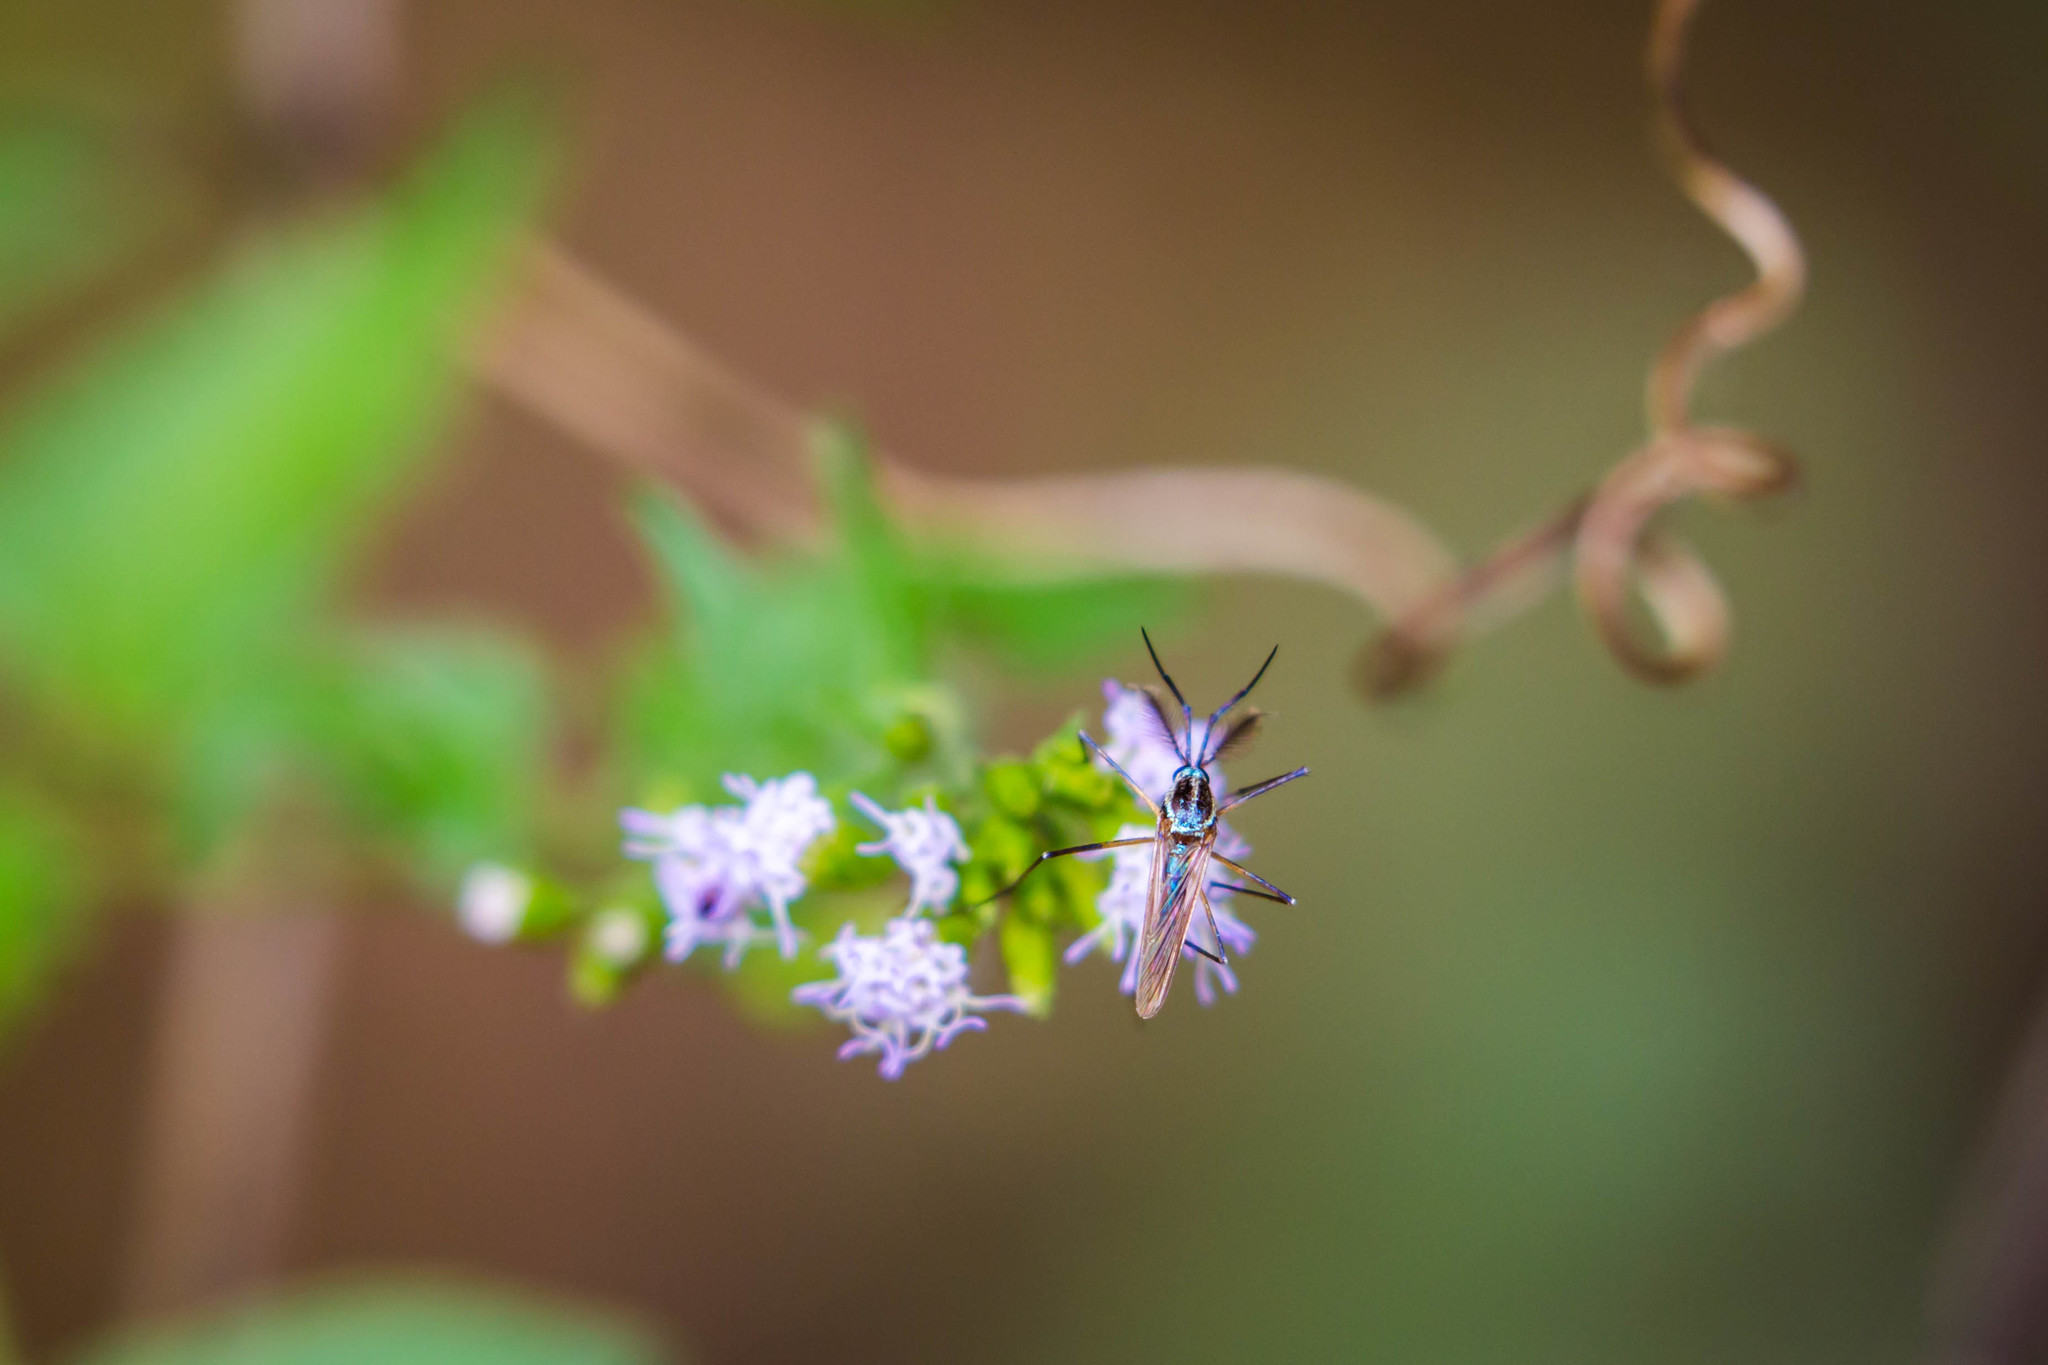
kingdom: Animalia
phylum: Arthropoda
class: Insecta
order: Diptera
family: Culicidae
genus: Toxorhynchites
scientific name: Toxorhynchites rutilus
